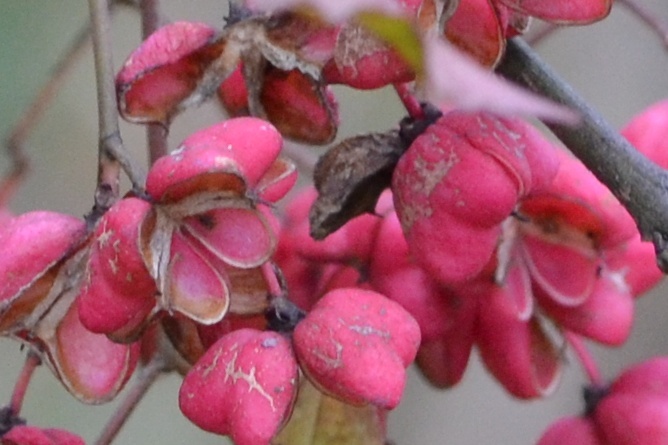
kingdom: Plantae
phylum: Tracheophyta
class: Magnoliopsida
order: Celastrales
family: Celastraceae
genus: Euonymus
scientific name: Euonymus europaeus
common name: Spindle
